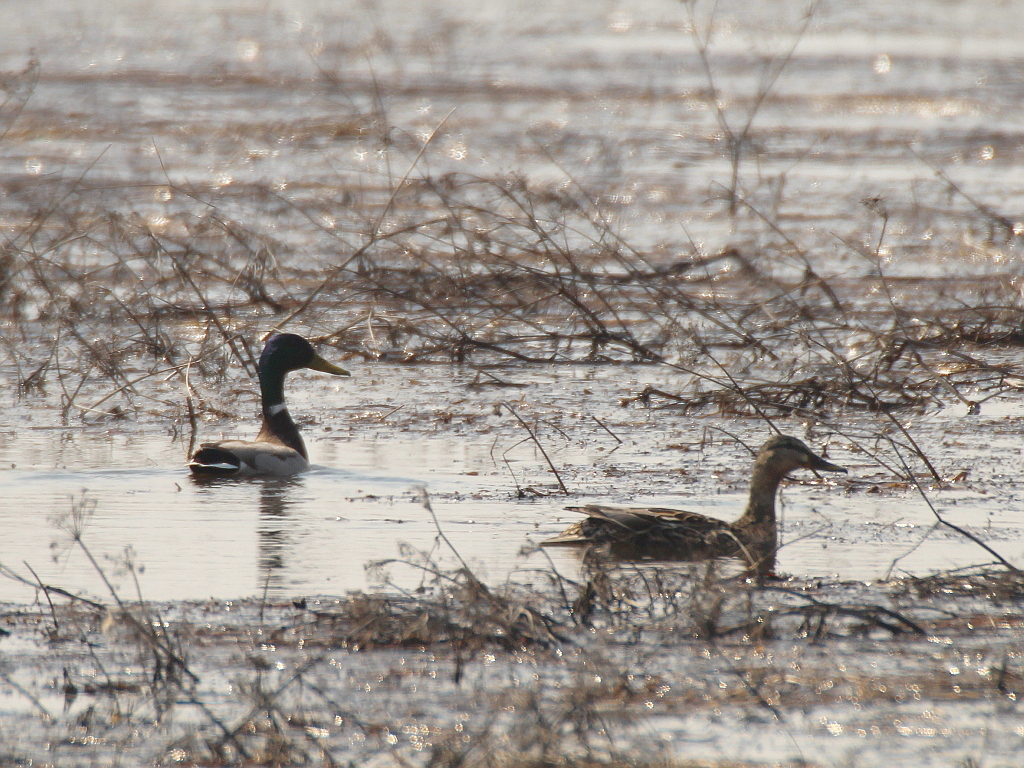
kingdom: Animalia
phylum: Chordata
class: Aves
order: Anseriformes
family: Anatidae
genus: Anas
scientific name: Anas platyrhynchos
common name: Mallard
